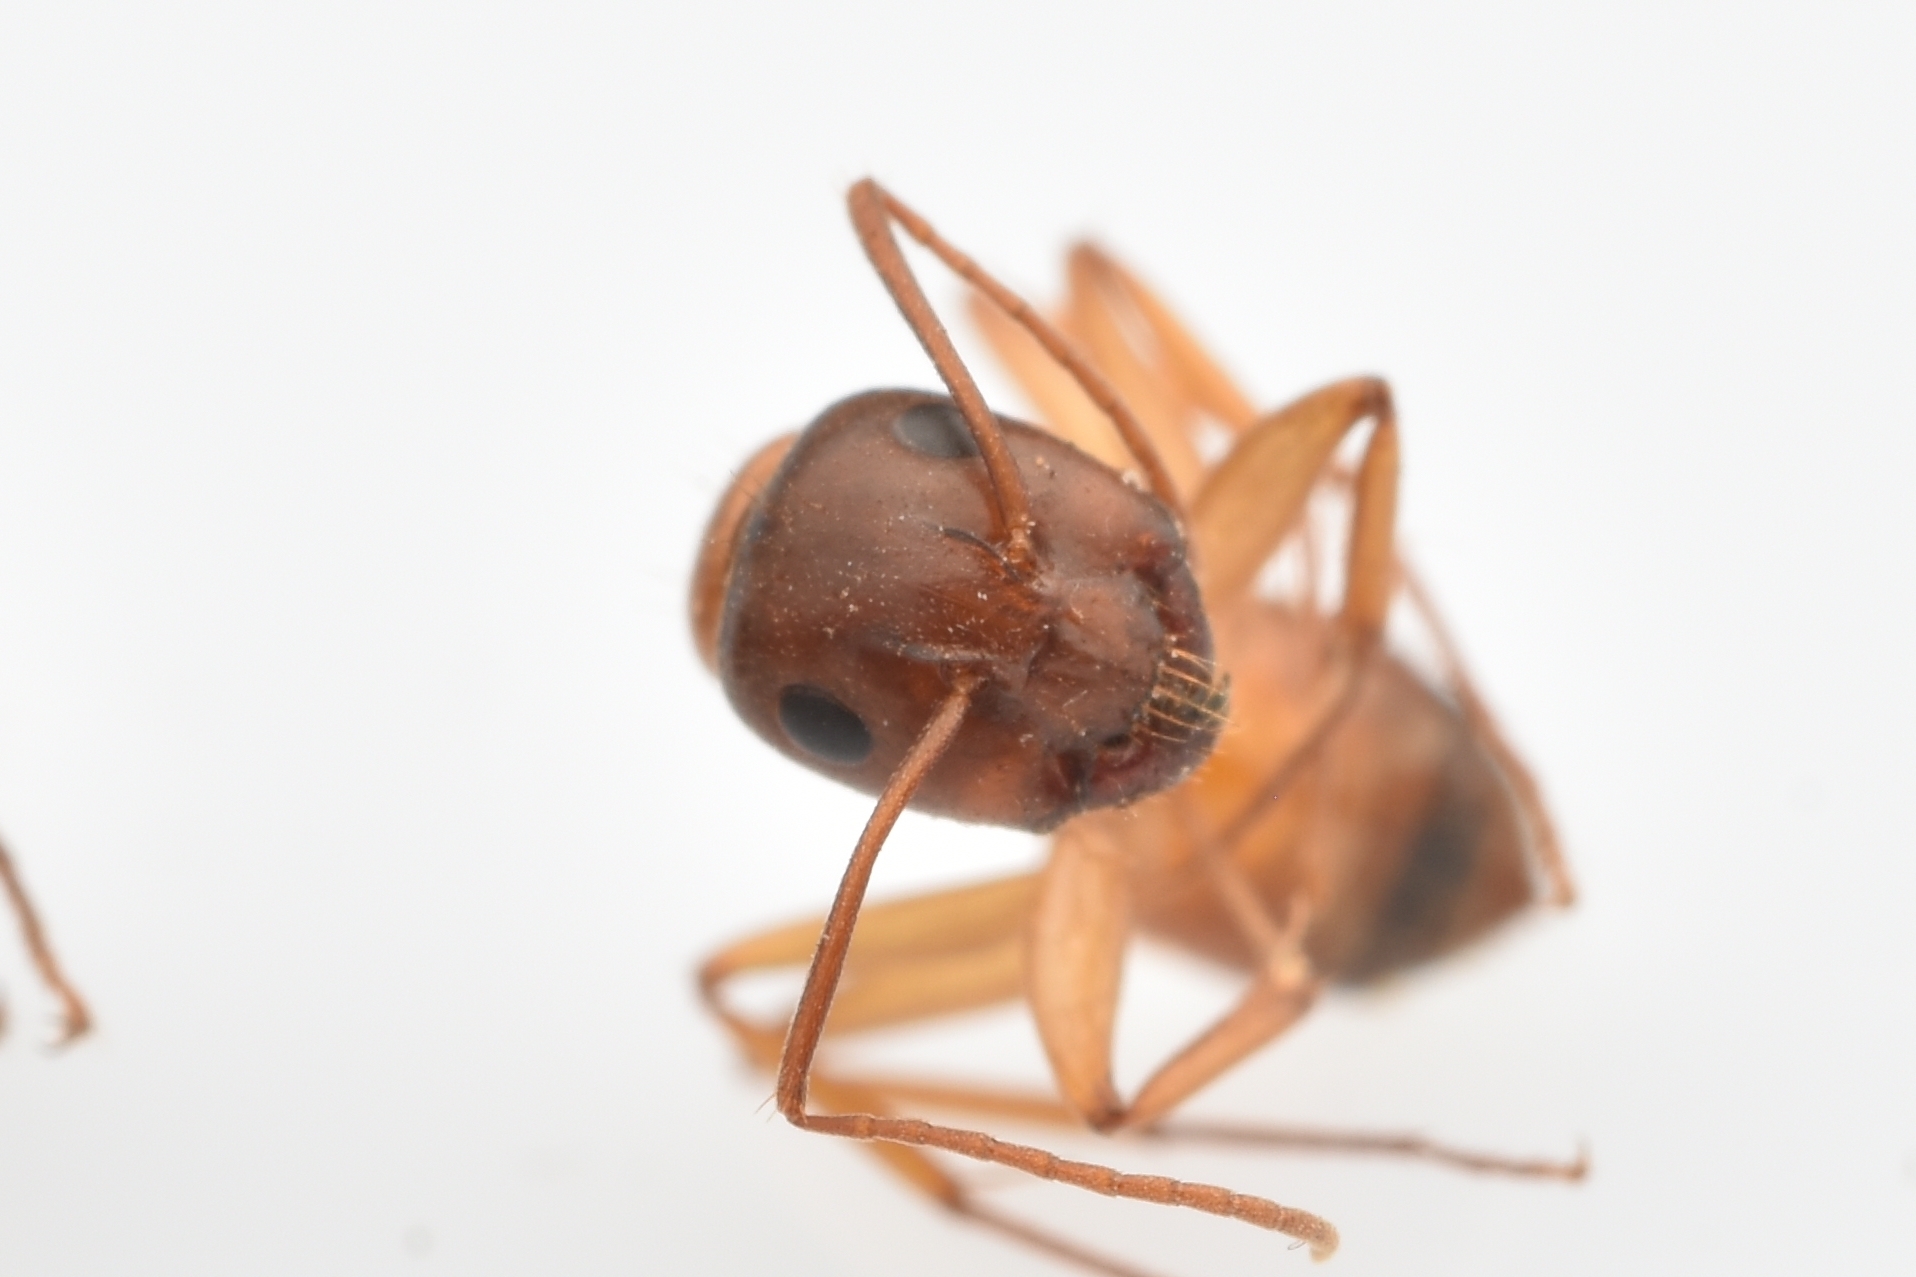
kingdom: Animalia
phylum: Arthropoda
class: Insecta
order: Hymenoptera
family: Formicidae
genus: Camponotus
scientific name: Camponotus sansabeanus
